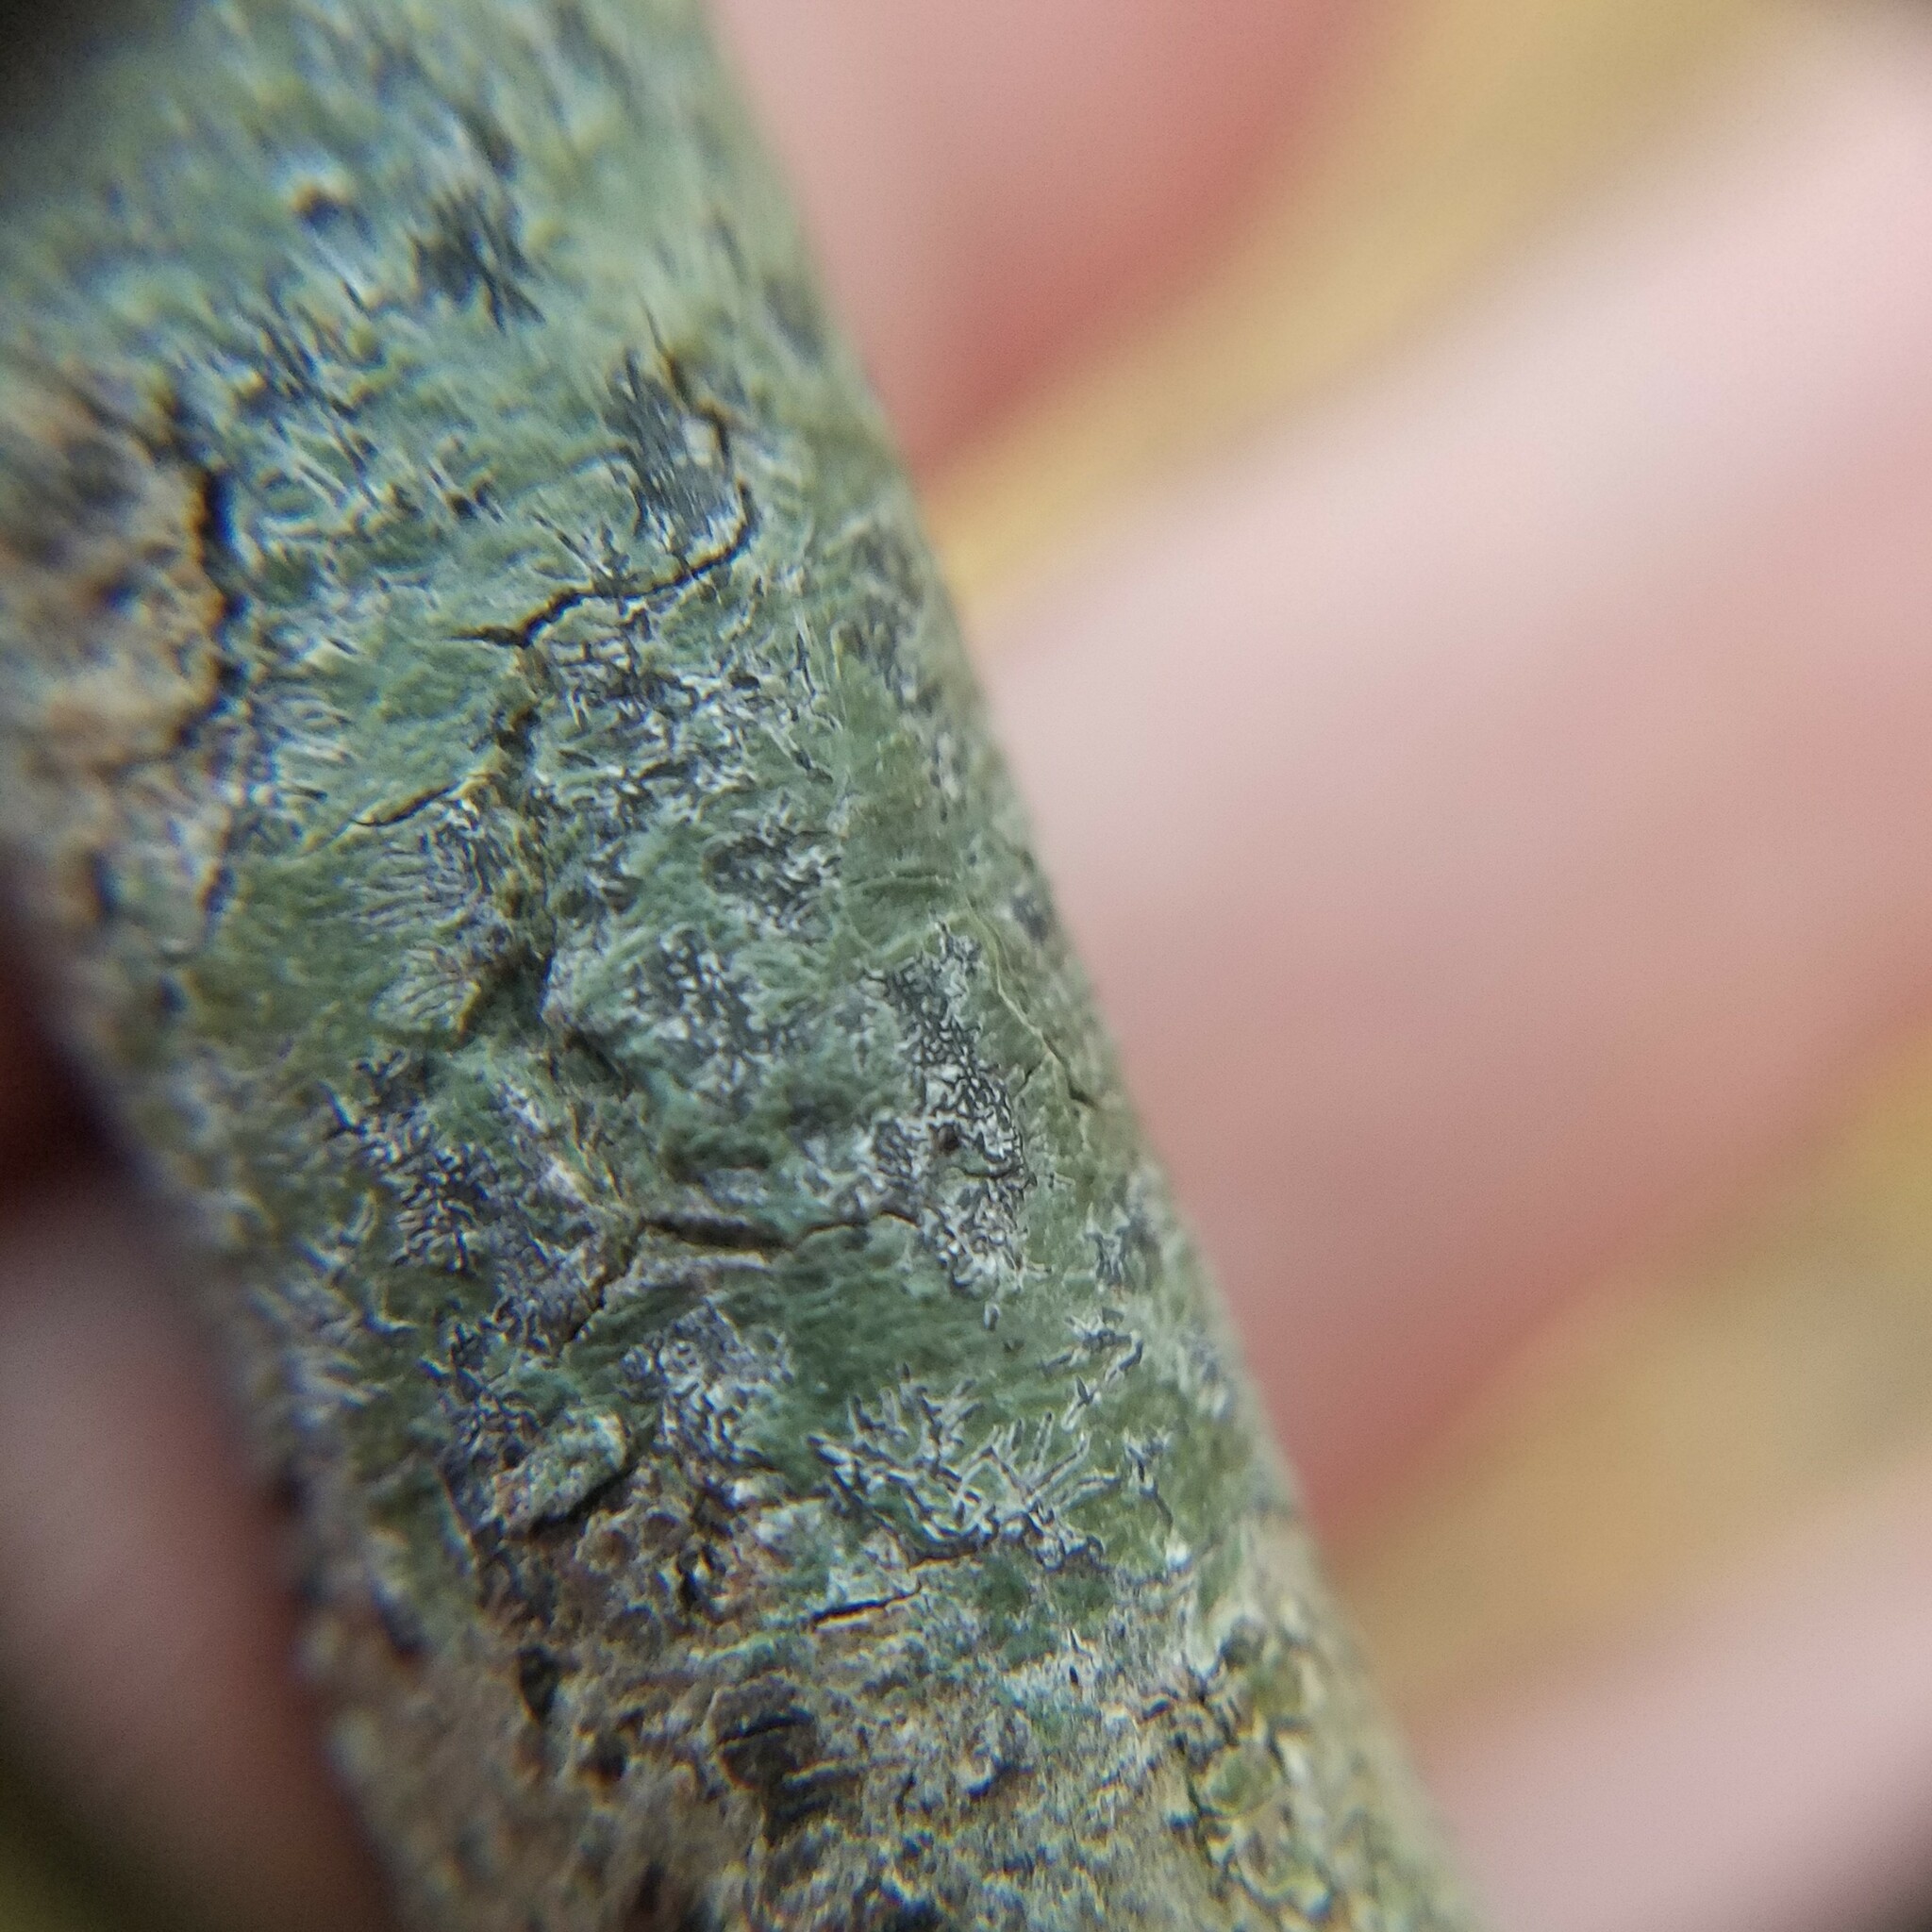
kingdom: Fungi
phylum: Ascomycota
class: Lecanoromycetes
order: Ostropales
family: Graphidaceae
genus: Leiorreuma
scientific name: Leiorreuma sericeum
